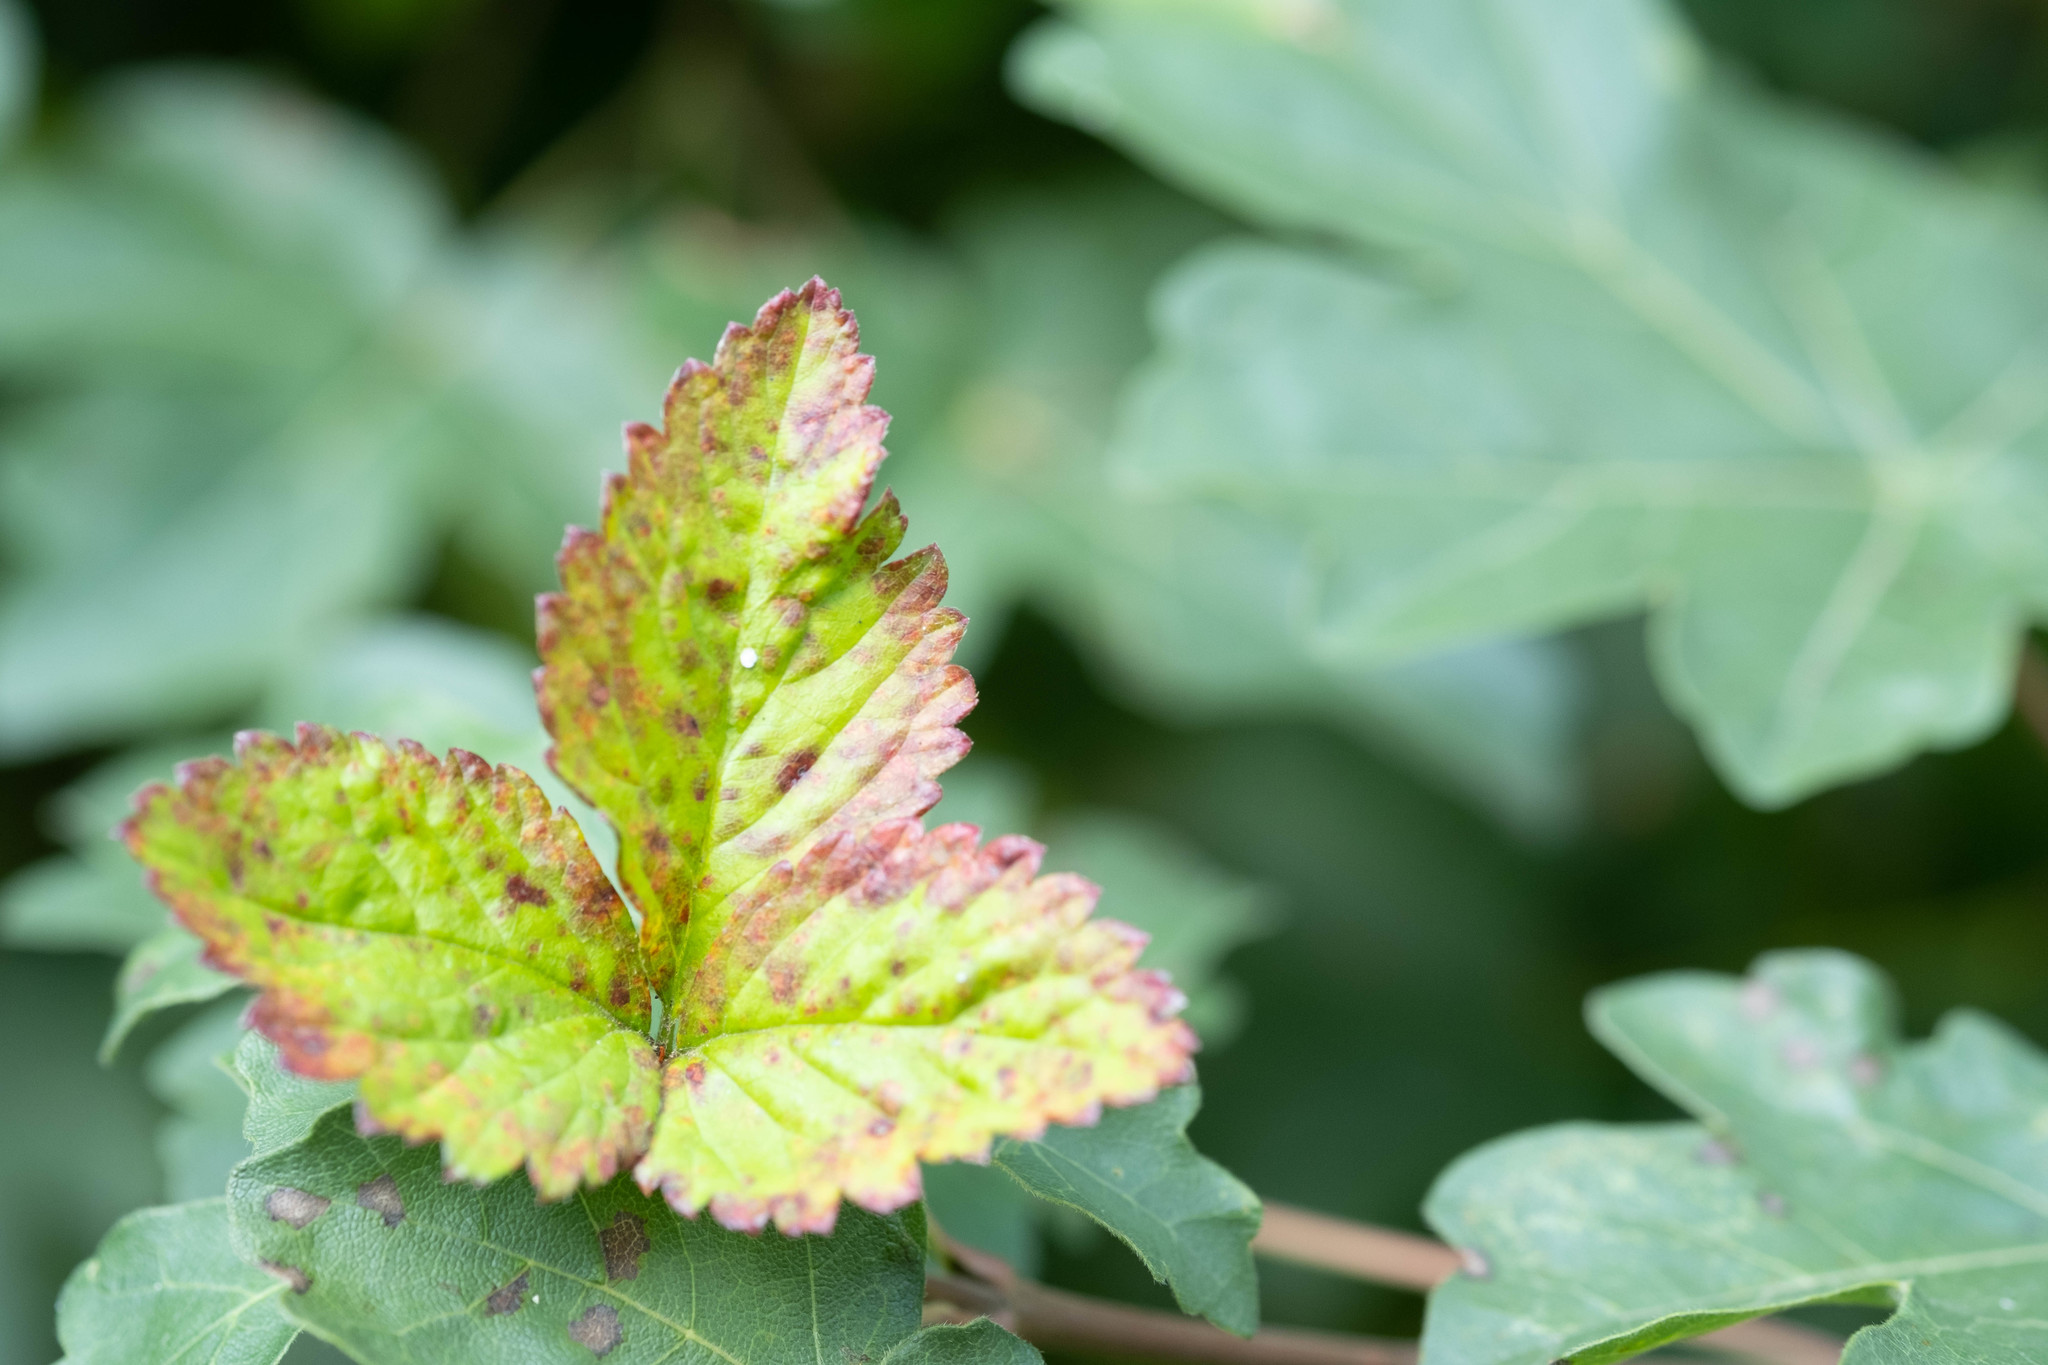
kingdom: Fungi
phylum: Basidiomycota
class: Pucciniomycetes
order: Pucciniales
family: Phragmidiaceae
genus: Phragmidium
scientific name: Phragmidium mexicanum
